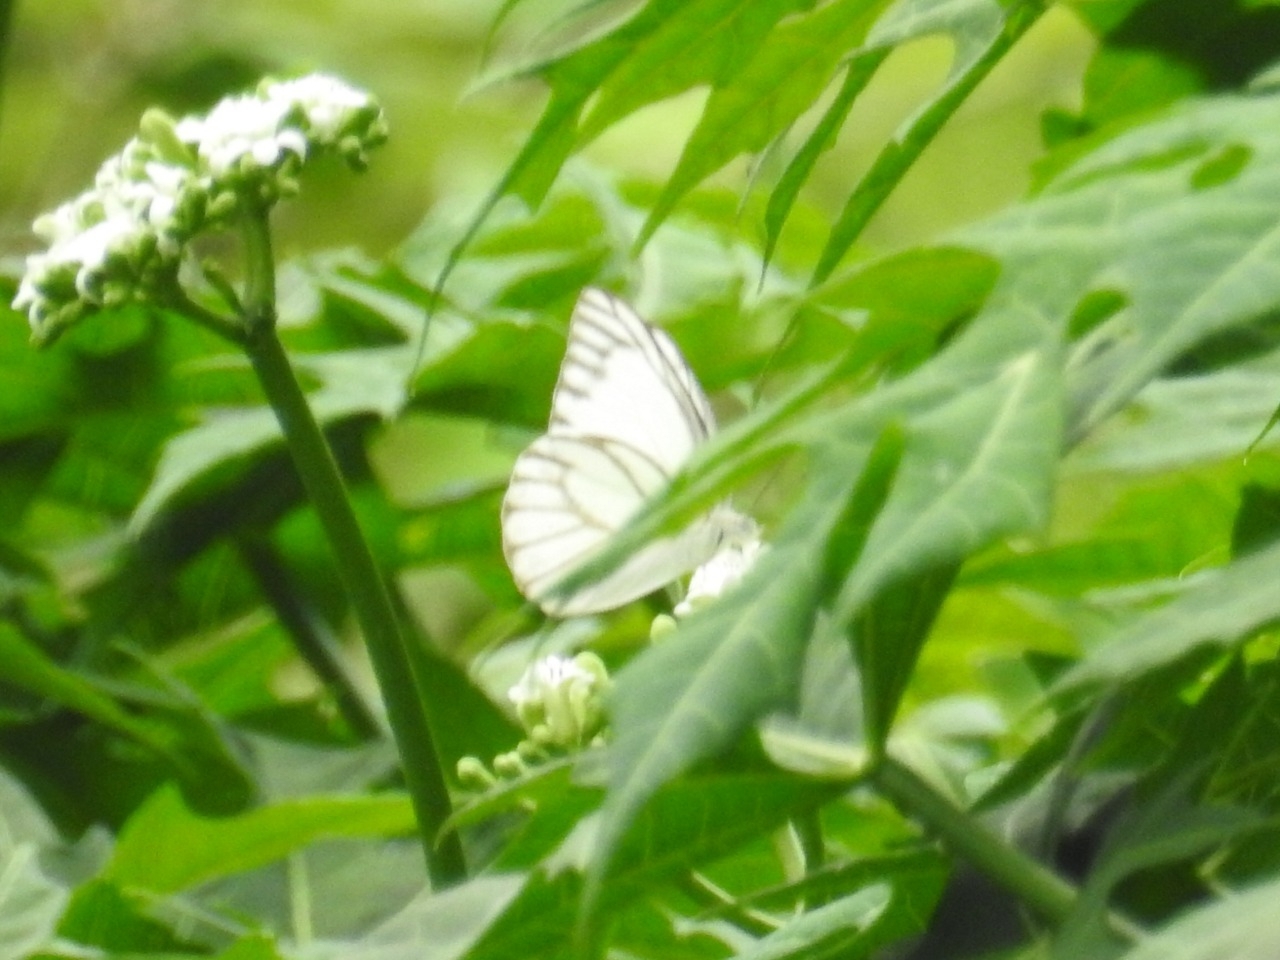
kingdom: Animalia
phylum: Arthropoda
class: Insecta
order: Lepidoptera
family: Pieridae
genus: Appias
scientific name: Appias libythea
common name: Striped albatross
